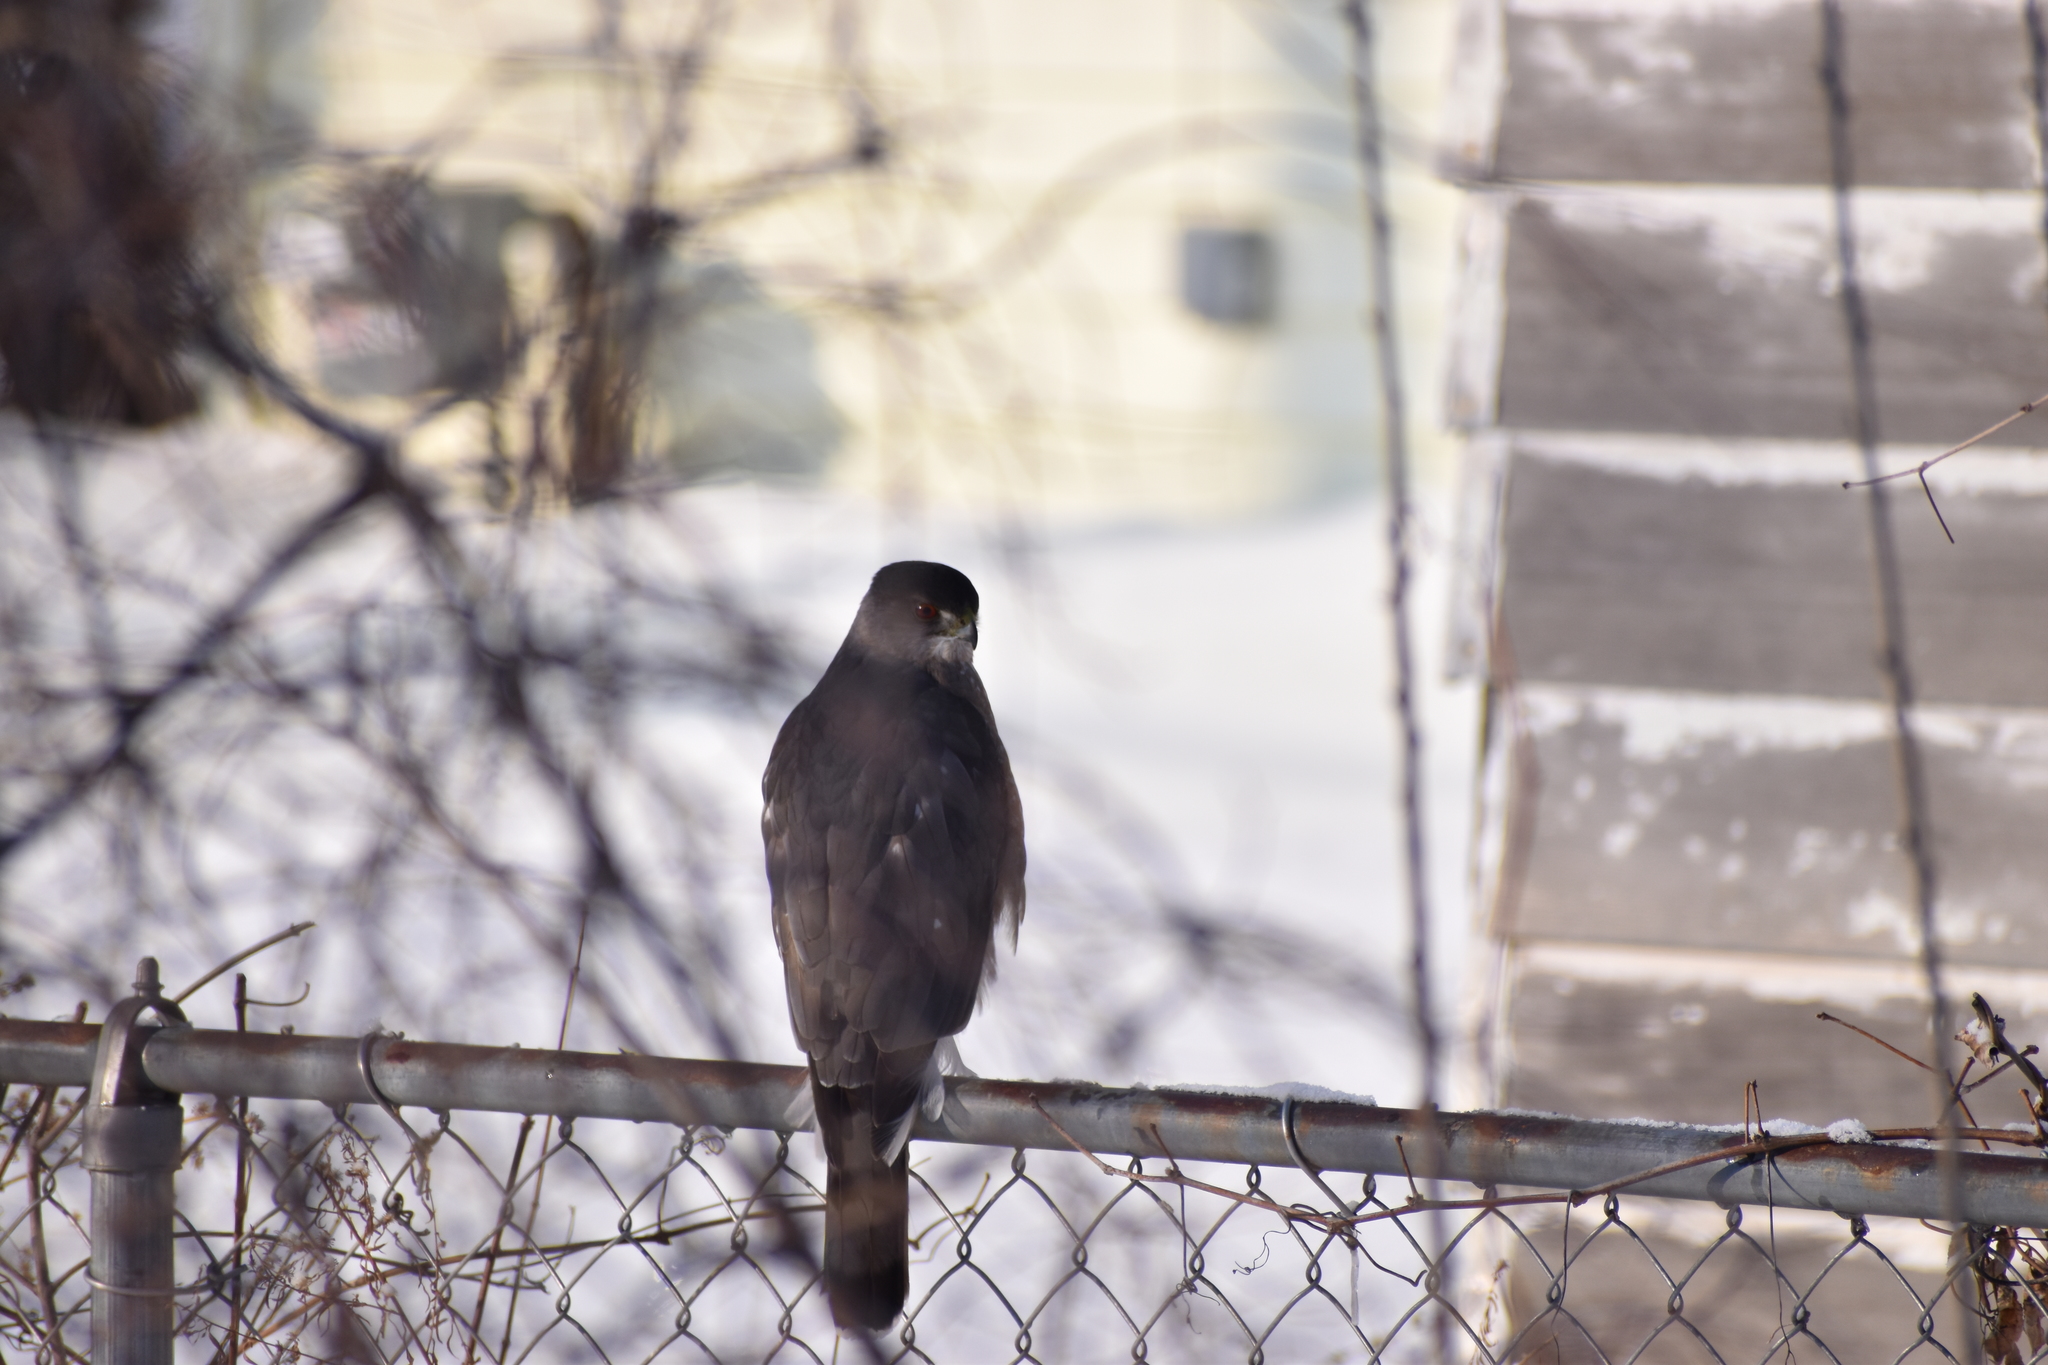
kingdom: Animalia
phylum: Chordata
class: Aves
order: Accipitriformes
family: Accipitridae
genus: Accipiter
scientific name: Accipiter cooperii
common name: Cooper's hawk
